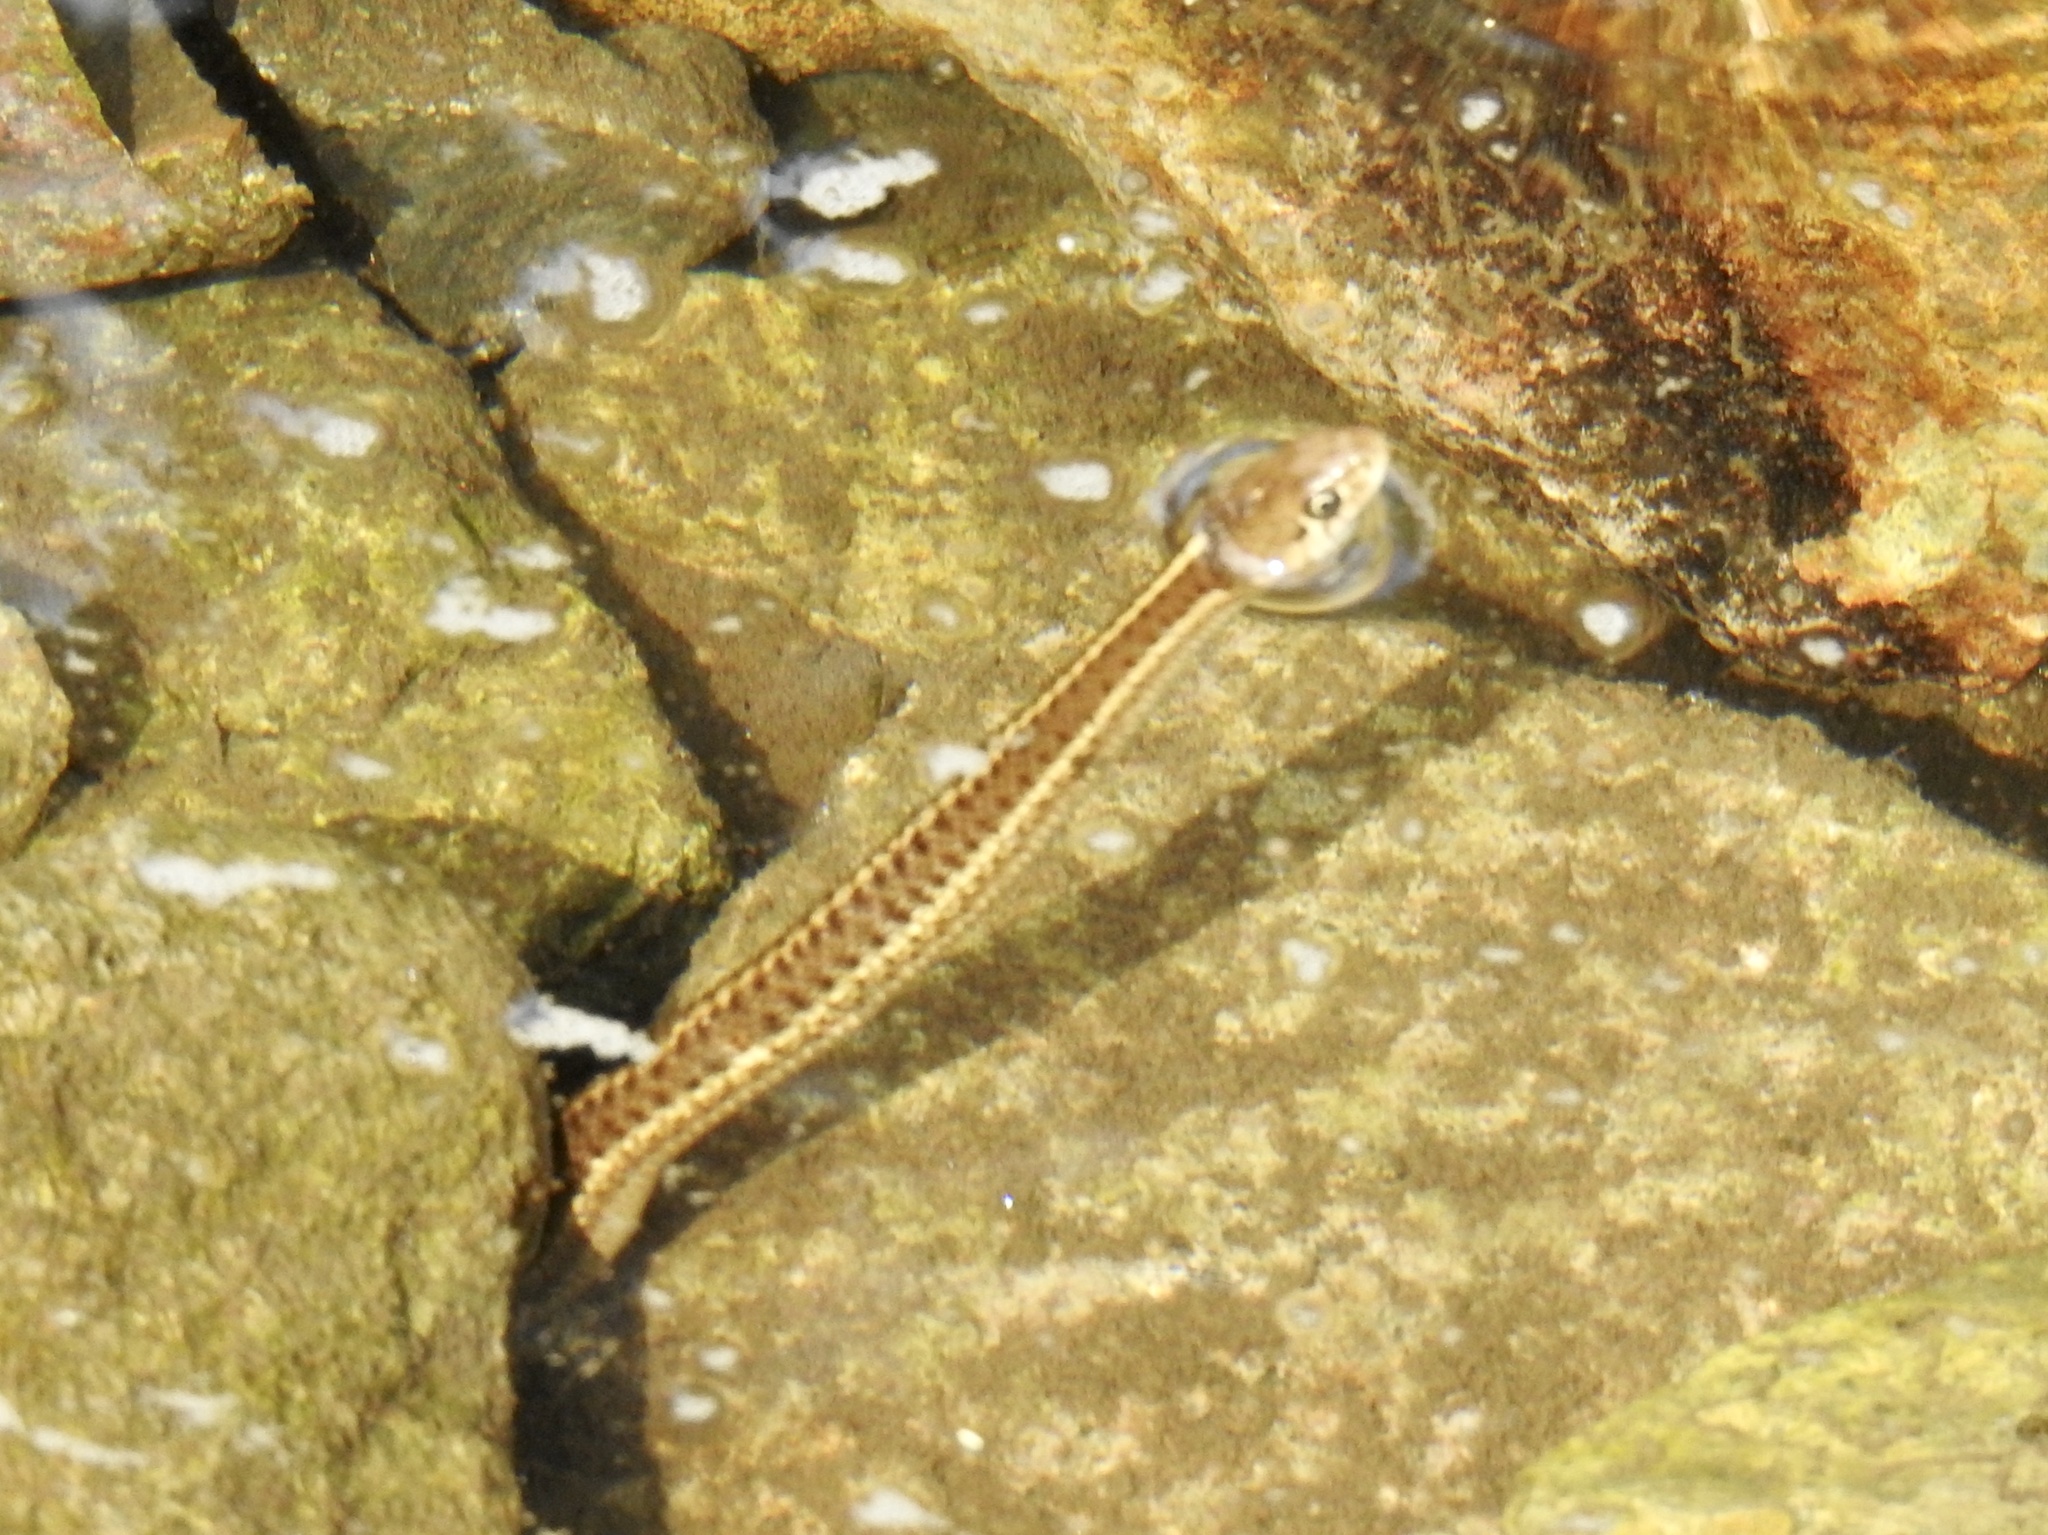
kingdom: Animalia
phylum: Chordata
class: Squamata
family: Colubridae
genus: Thamnophis
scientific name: Thamnophis elegans
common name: Western terrestrial garter snake
